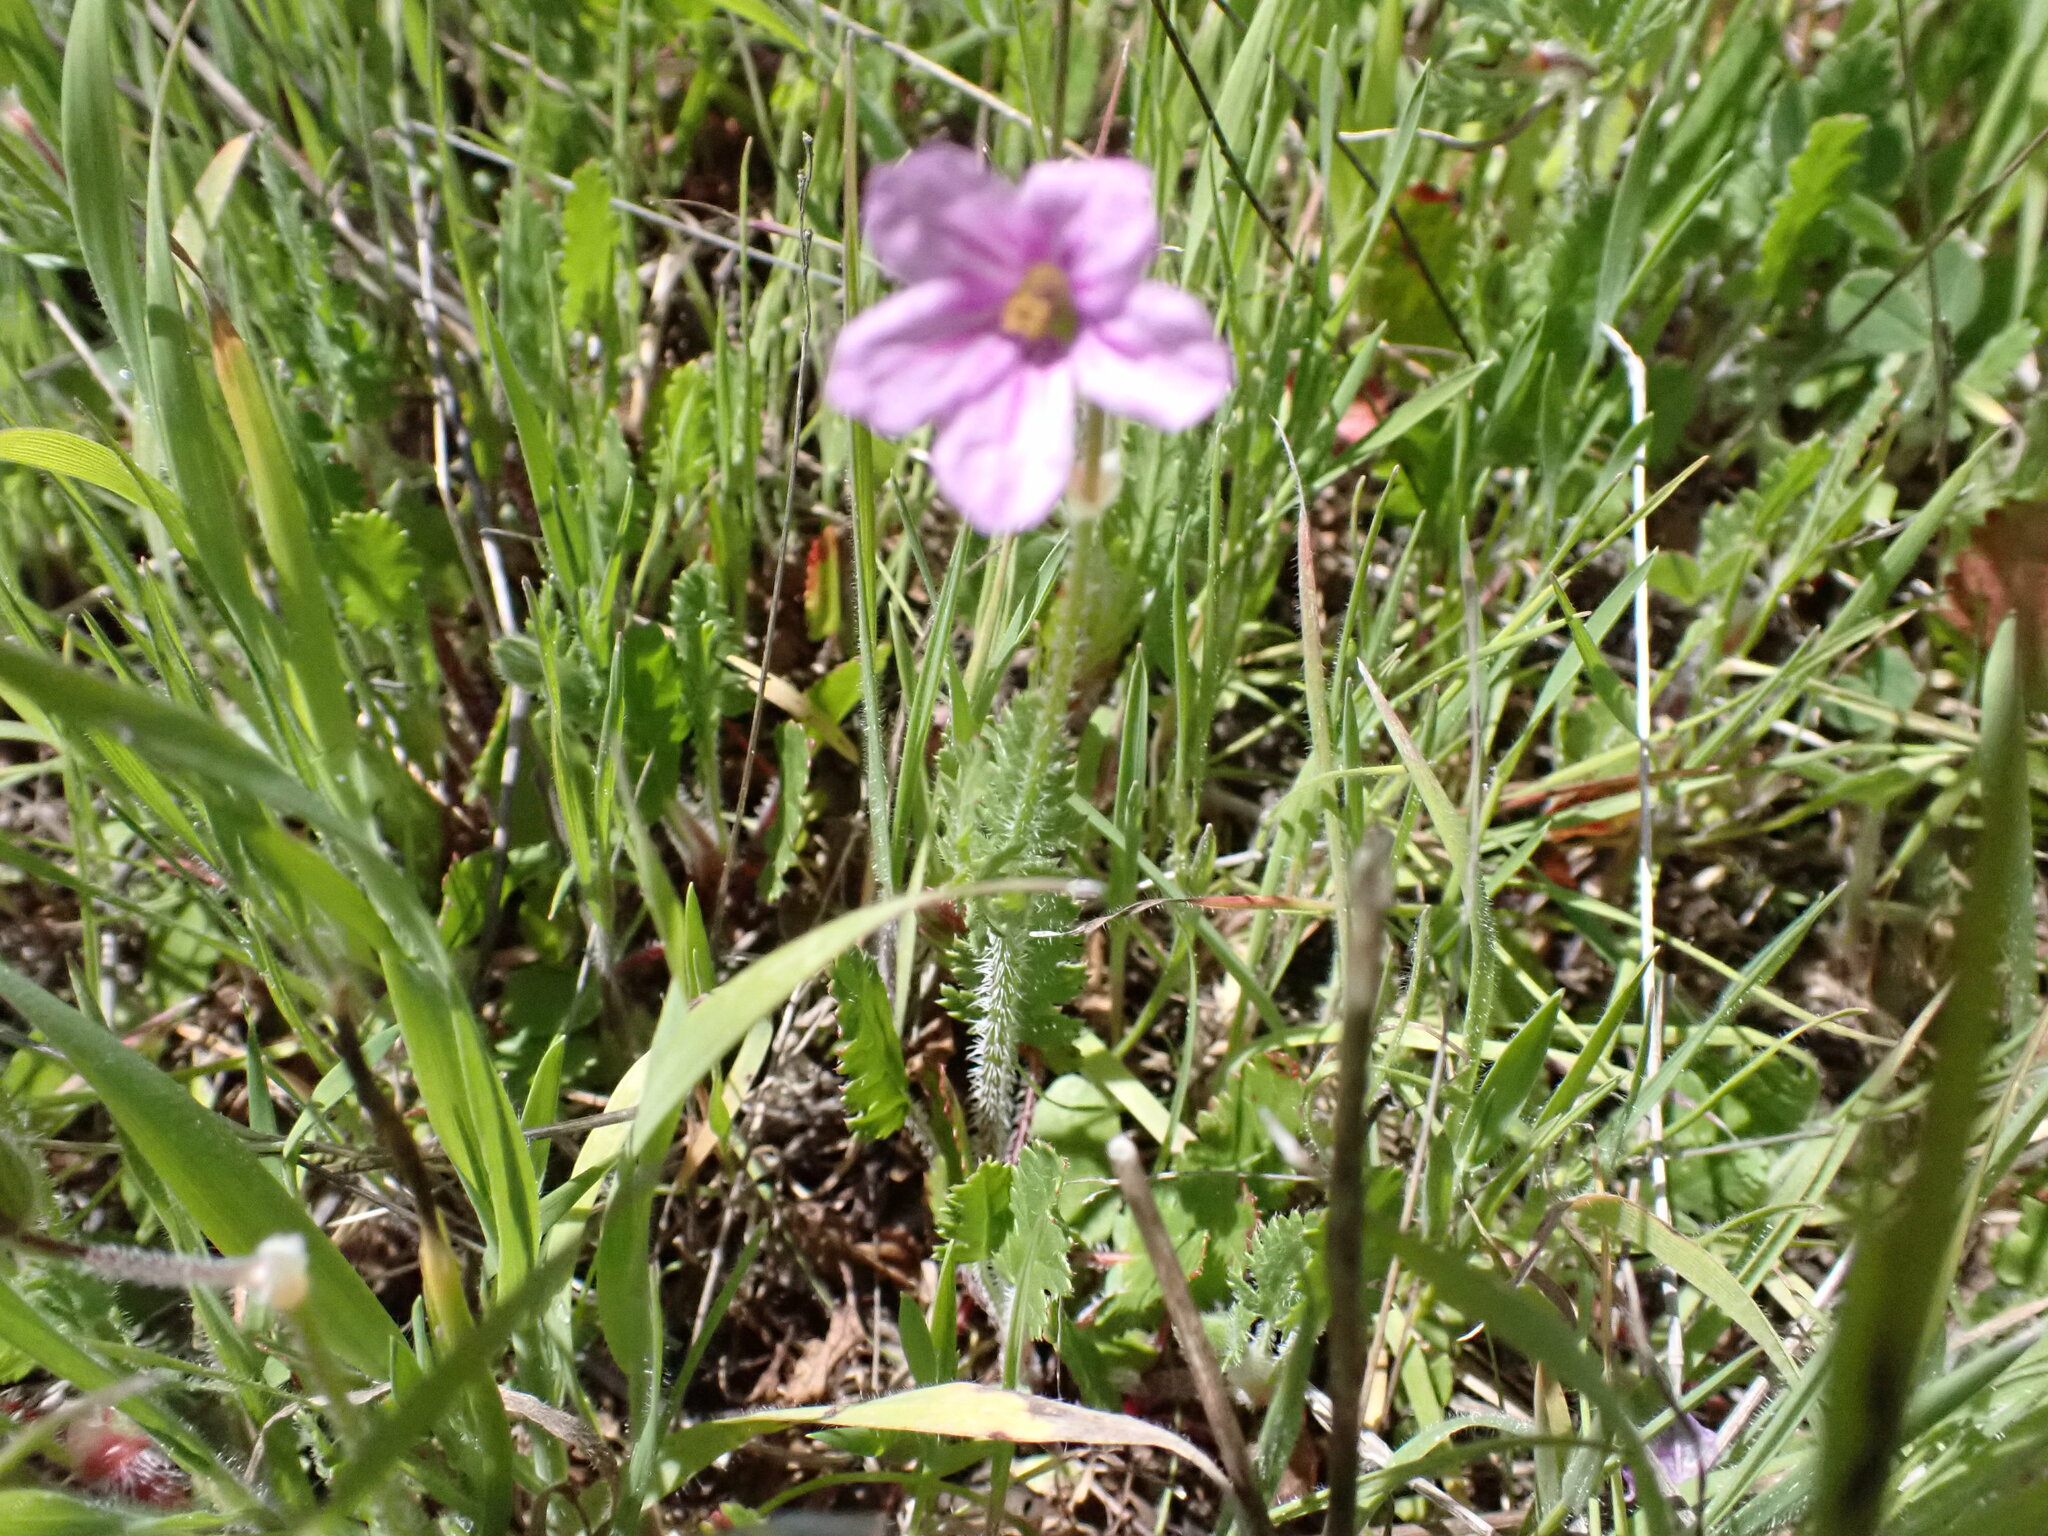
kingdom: Plantae
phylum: Tracheophyta
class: Magnoliopsida
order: Geraniales
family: Geraniaceae
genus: Erodium
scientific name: Erodium botrys
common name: Mediterranean stork's-bill
